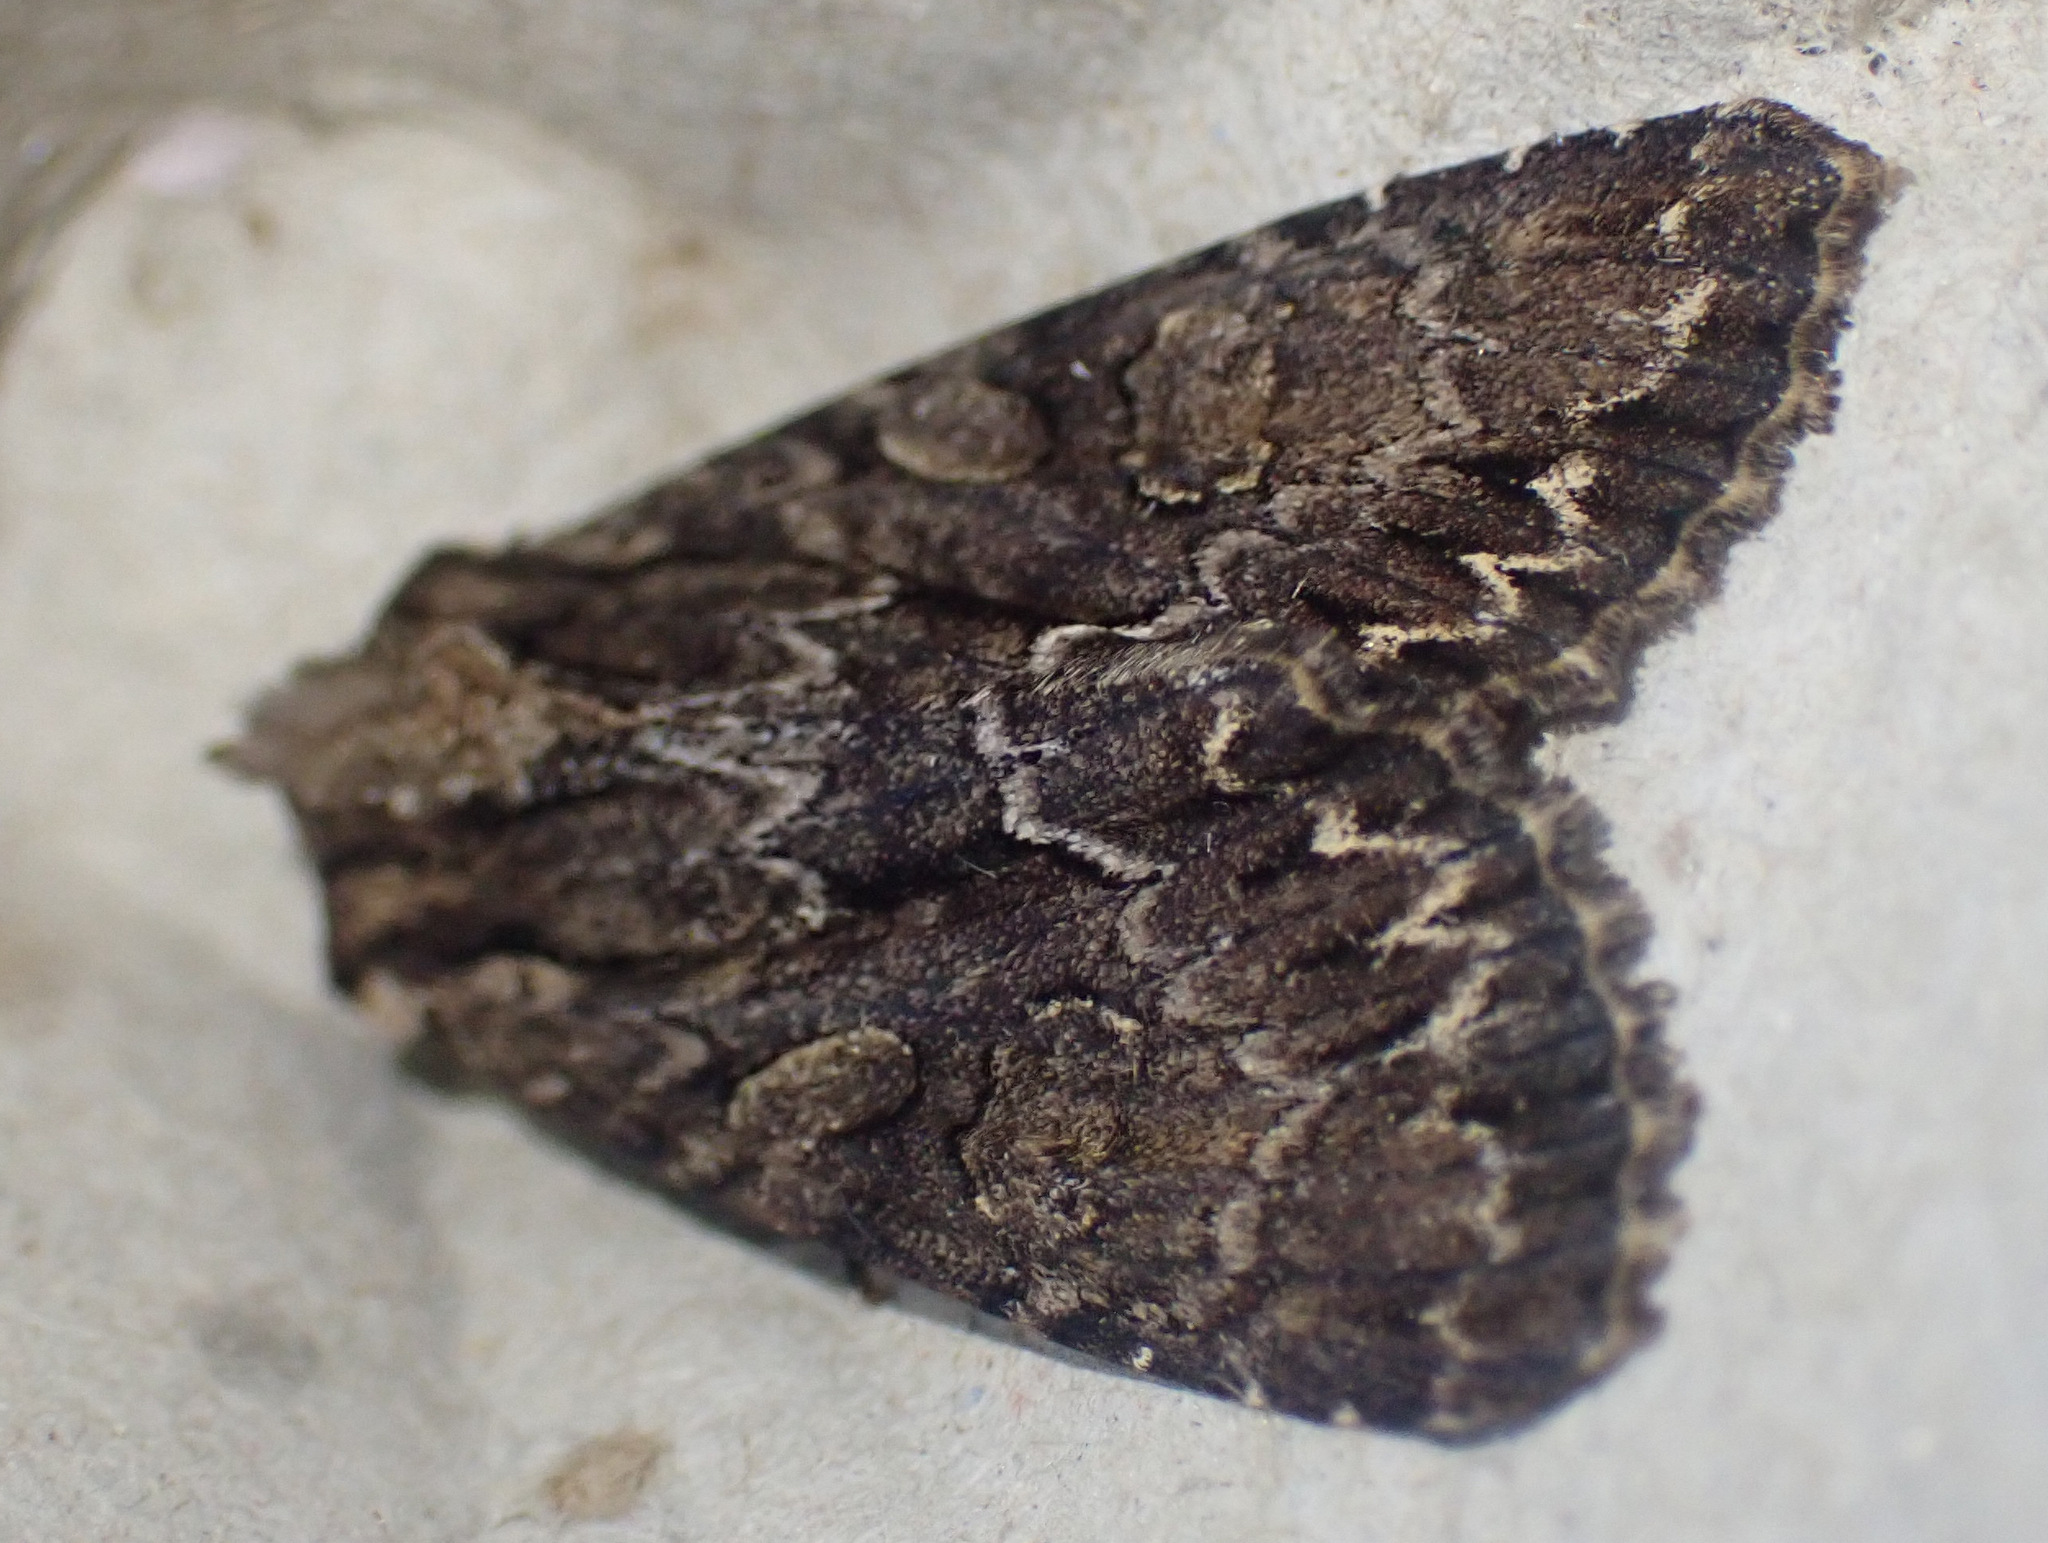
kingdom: Animalia
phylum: Arthropoda
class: Insecta
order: Lepidoptera
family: Noctuidae
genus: Apamea
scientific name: Apamea monoglypha
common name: Dark arches
